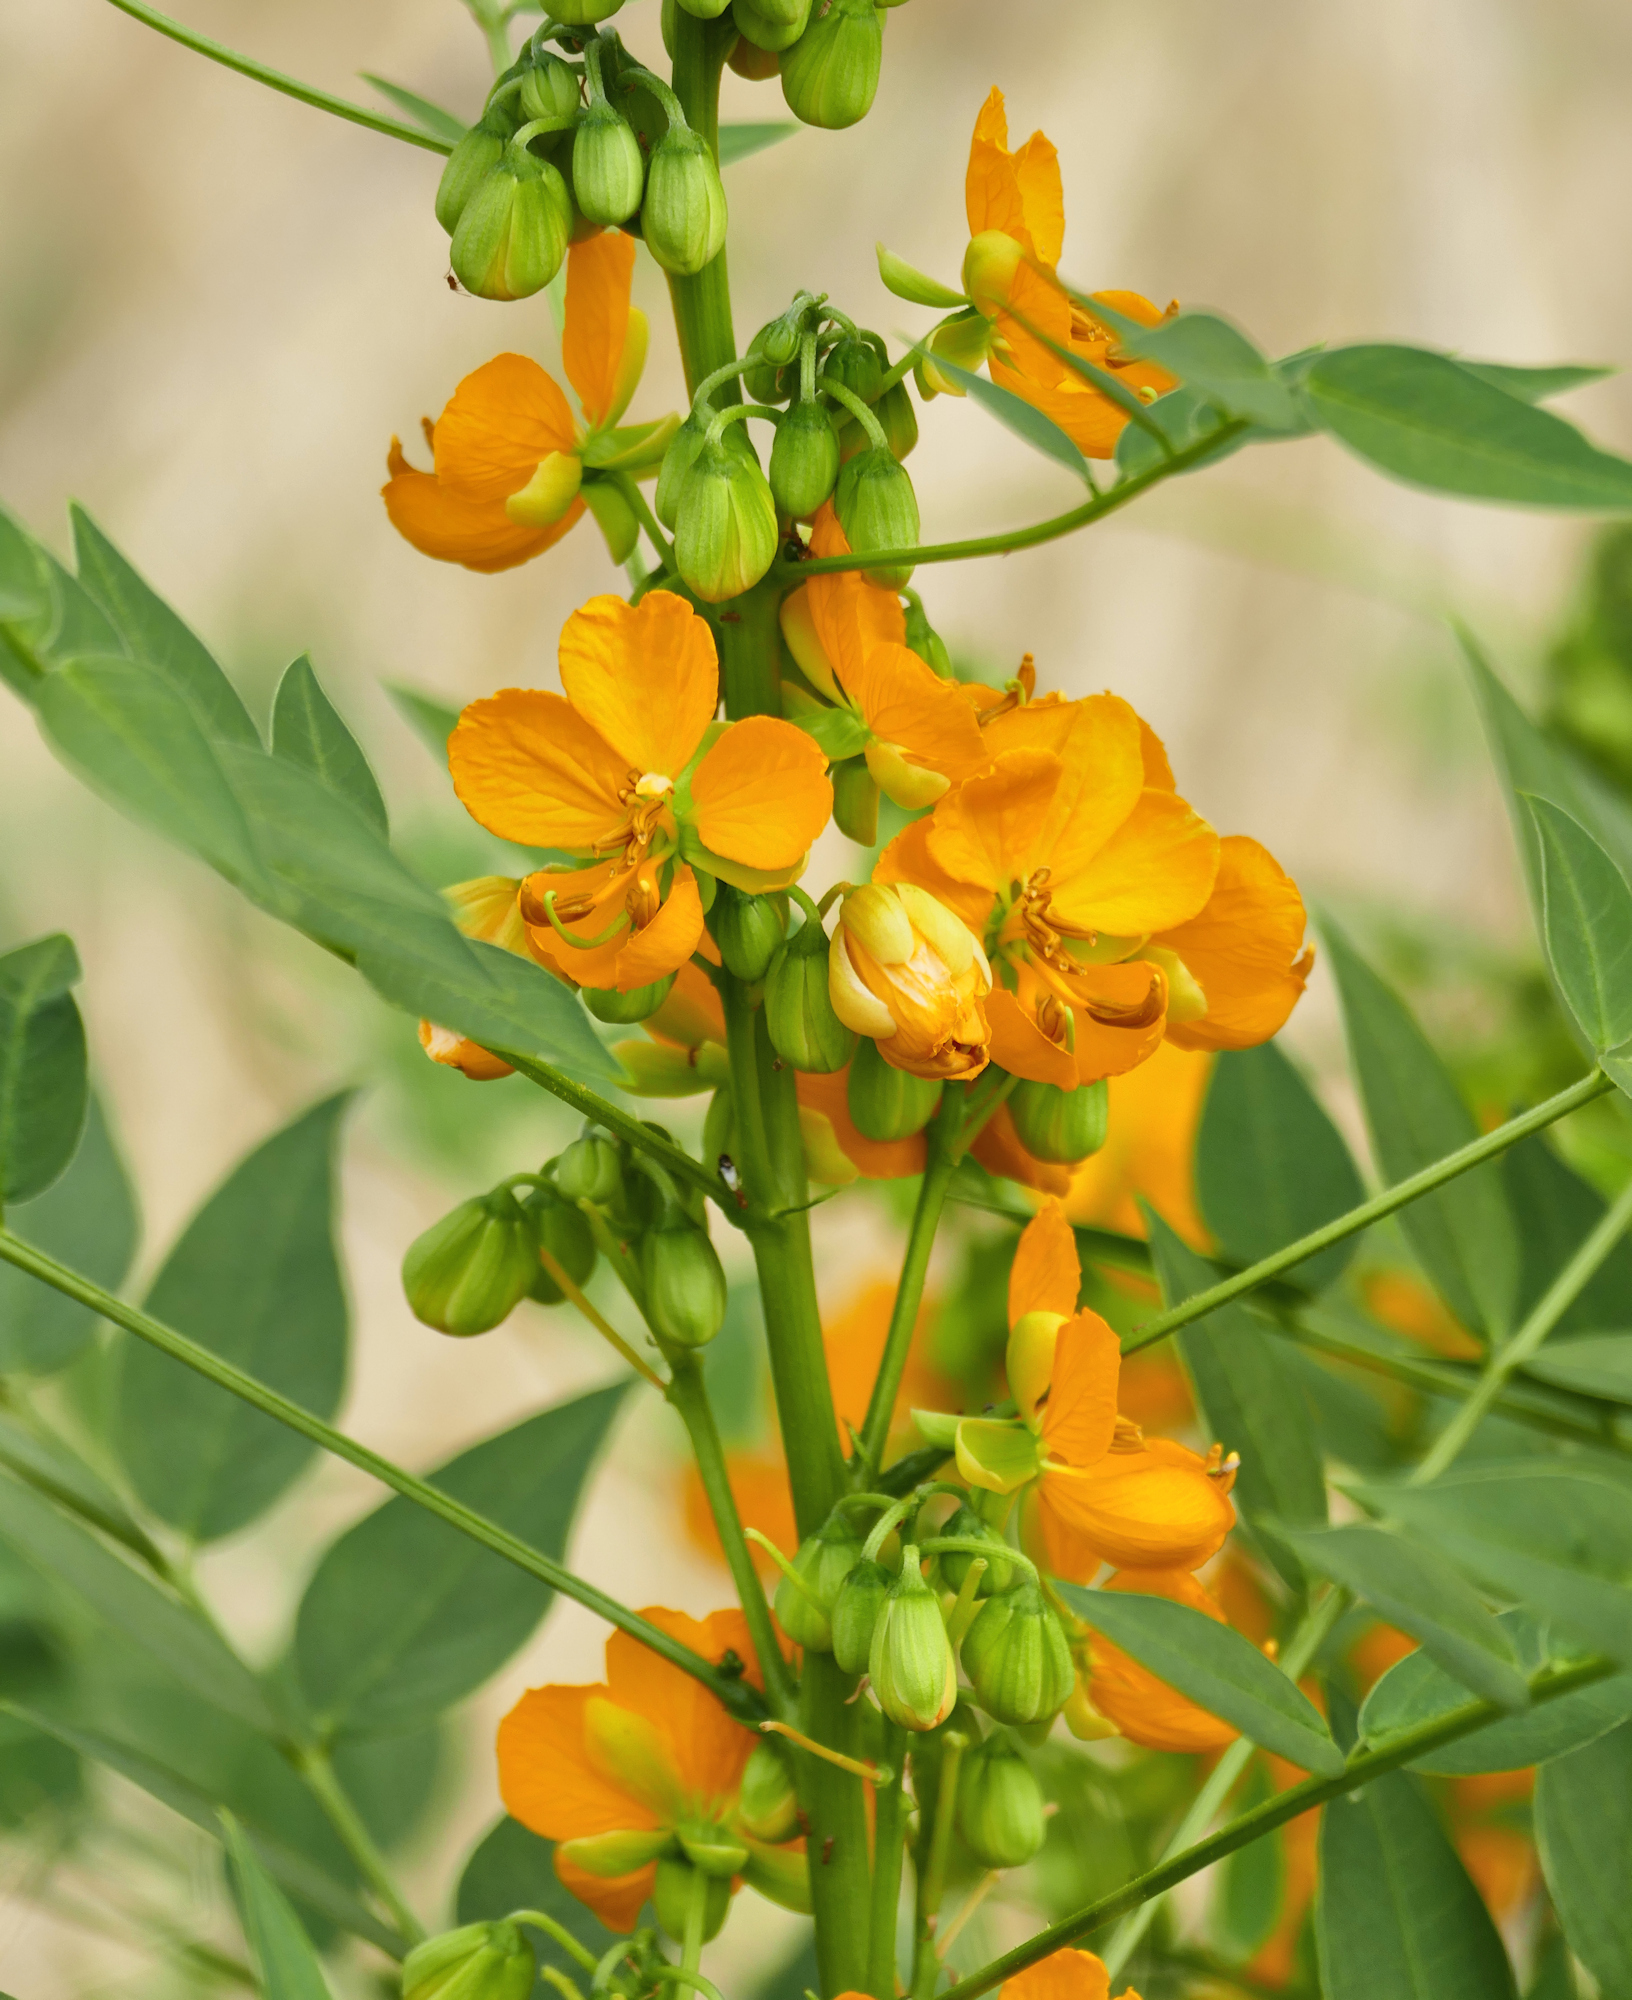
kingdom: Plantae
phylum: Tracheophyta
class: Magnoliopsida
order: Fabales
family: Fabaceae
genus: Senna
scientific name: Senna hirsuta
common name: Woolly senna
